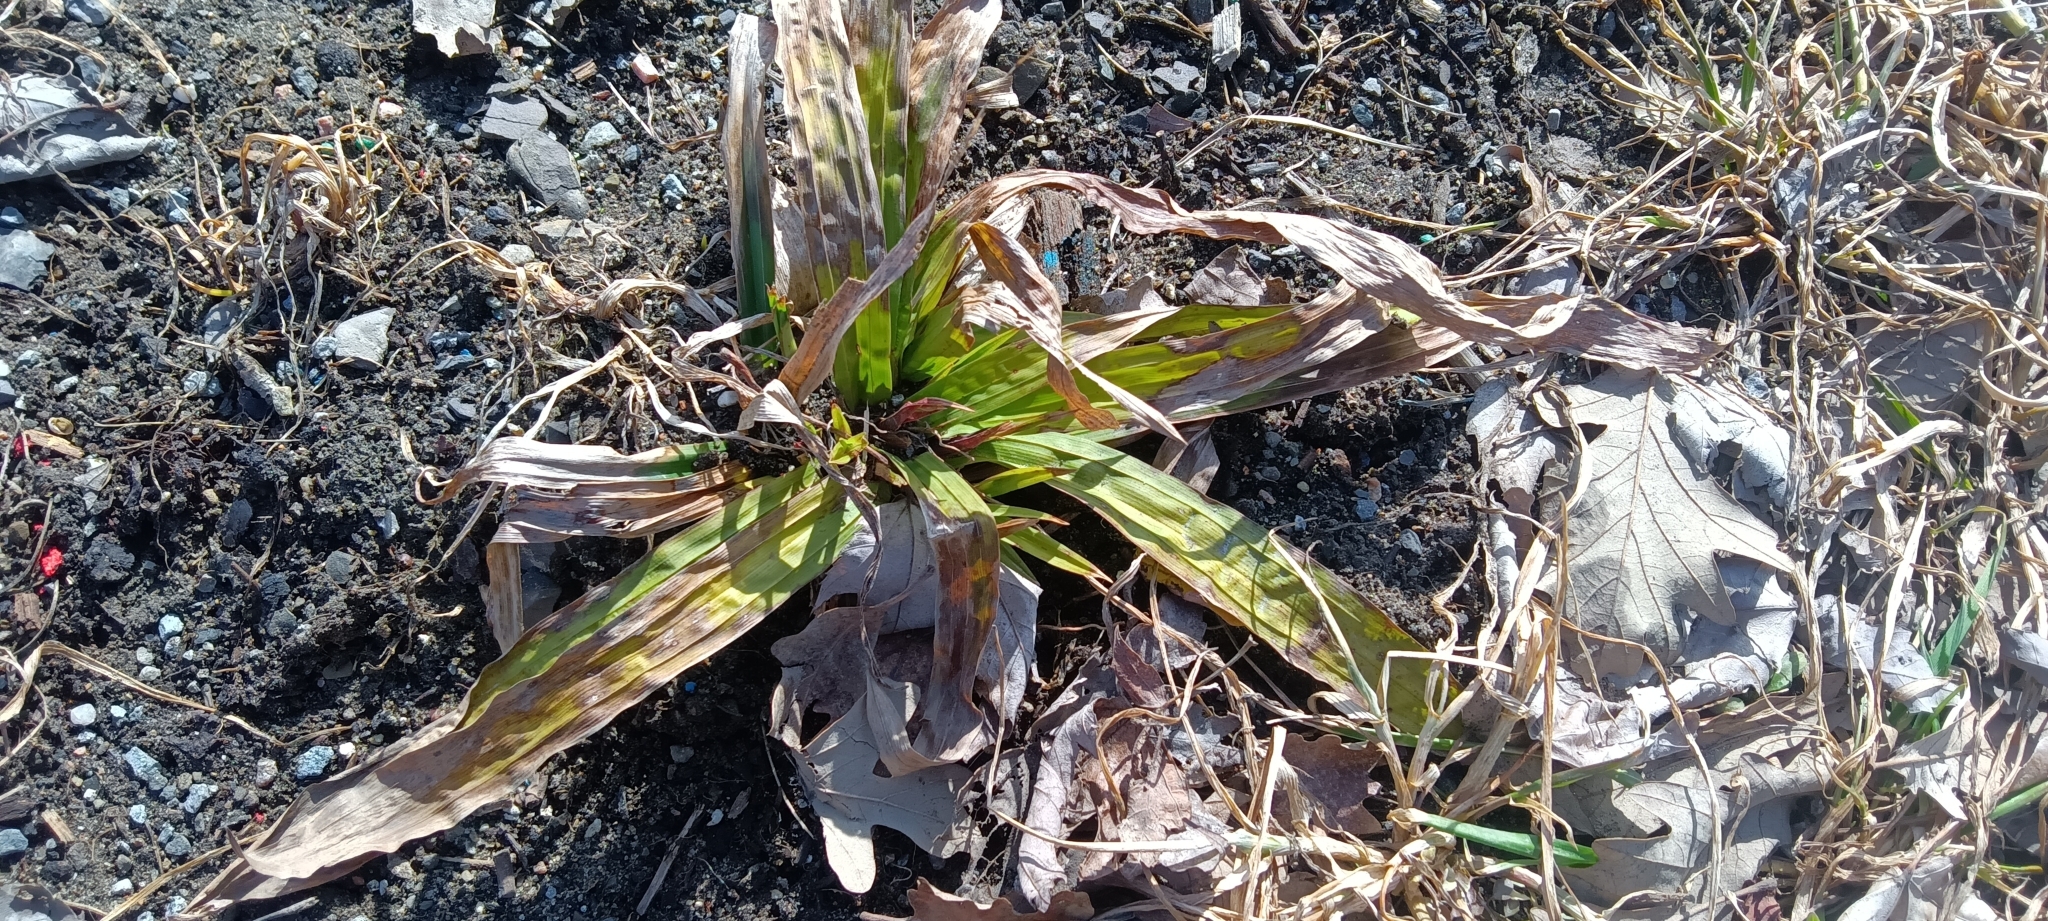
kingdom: Plantae
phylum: Tracheophyta
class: Liliopsida
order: Poales
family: Cyperaceae
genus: Carex
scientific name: Carex plantaginea
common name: Plantain-leaved sedge
